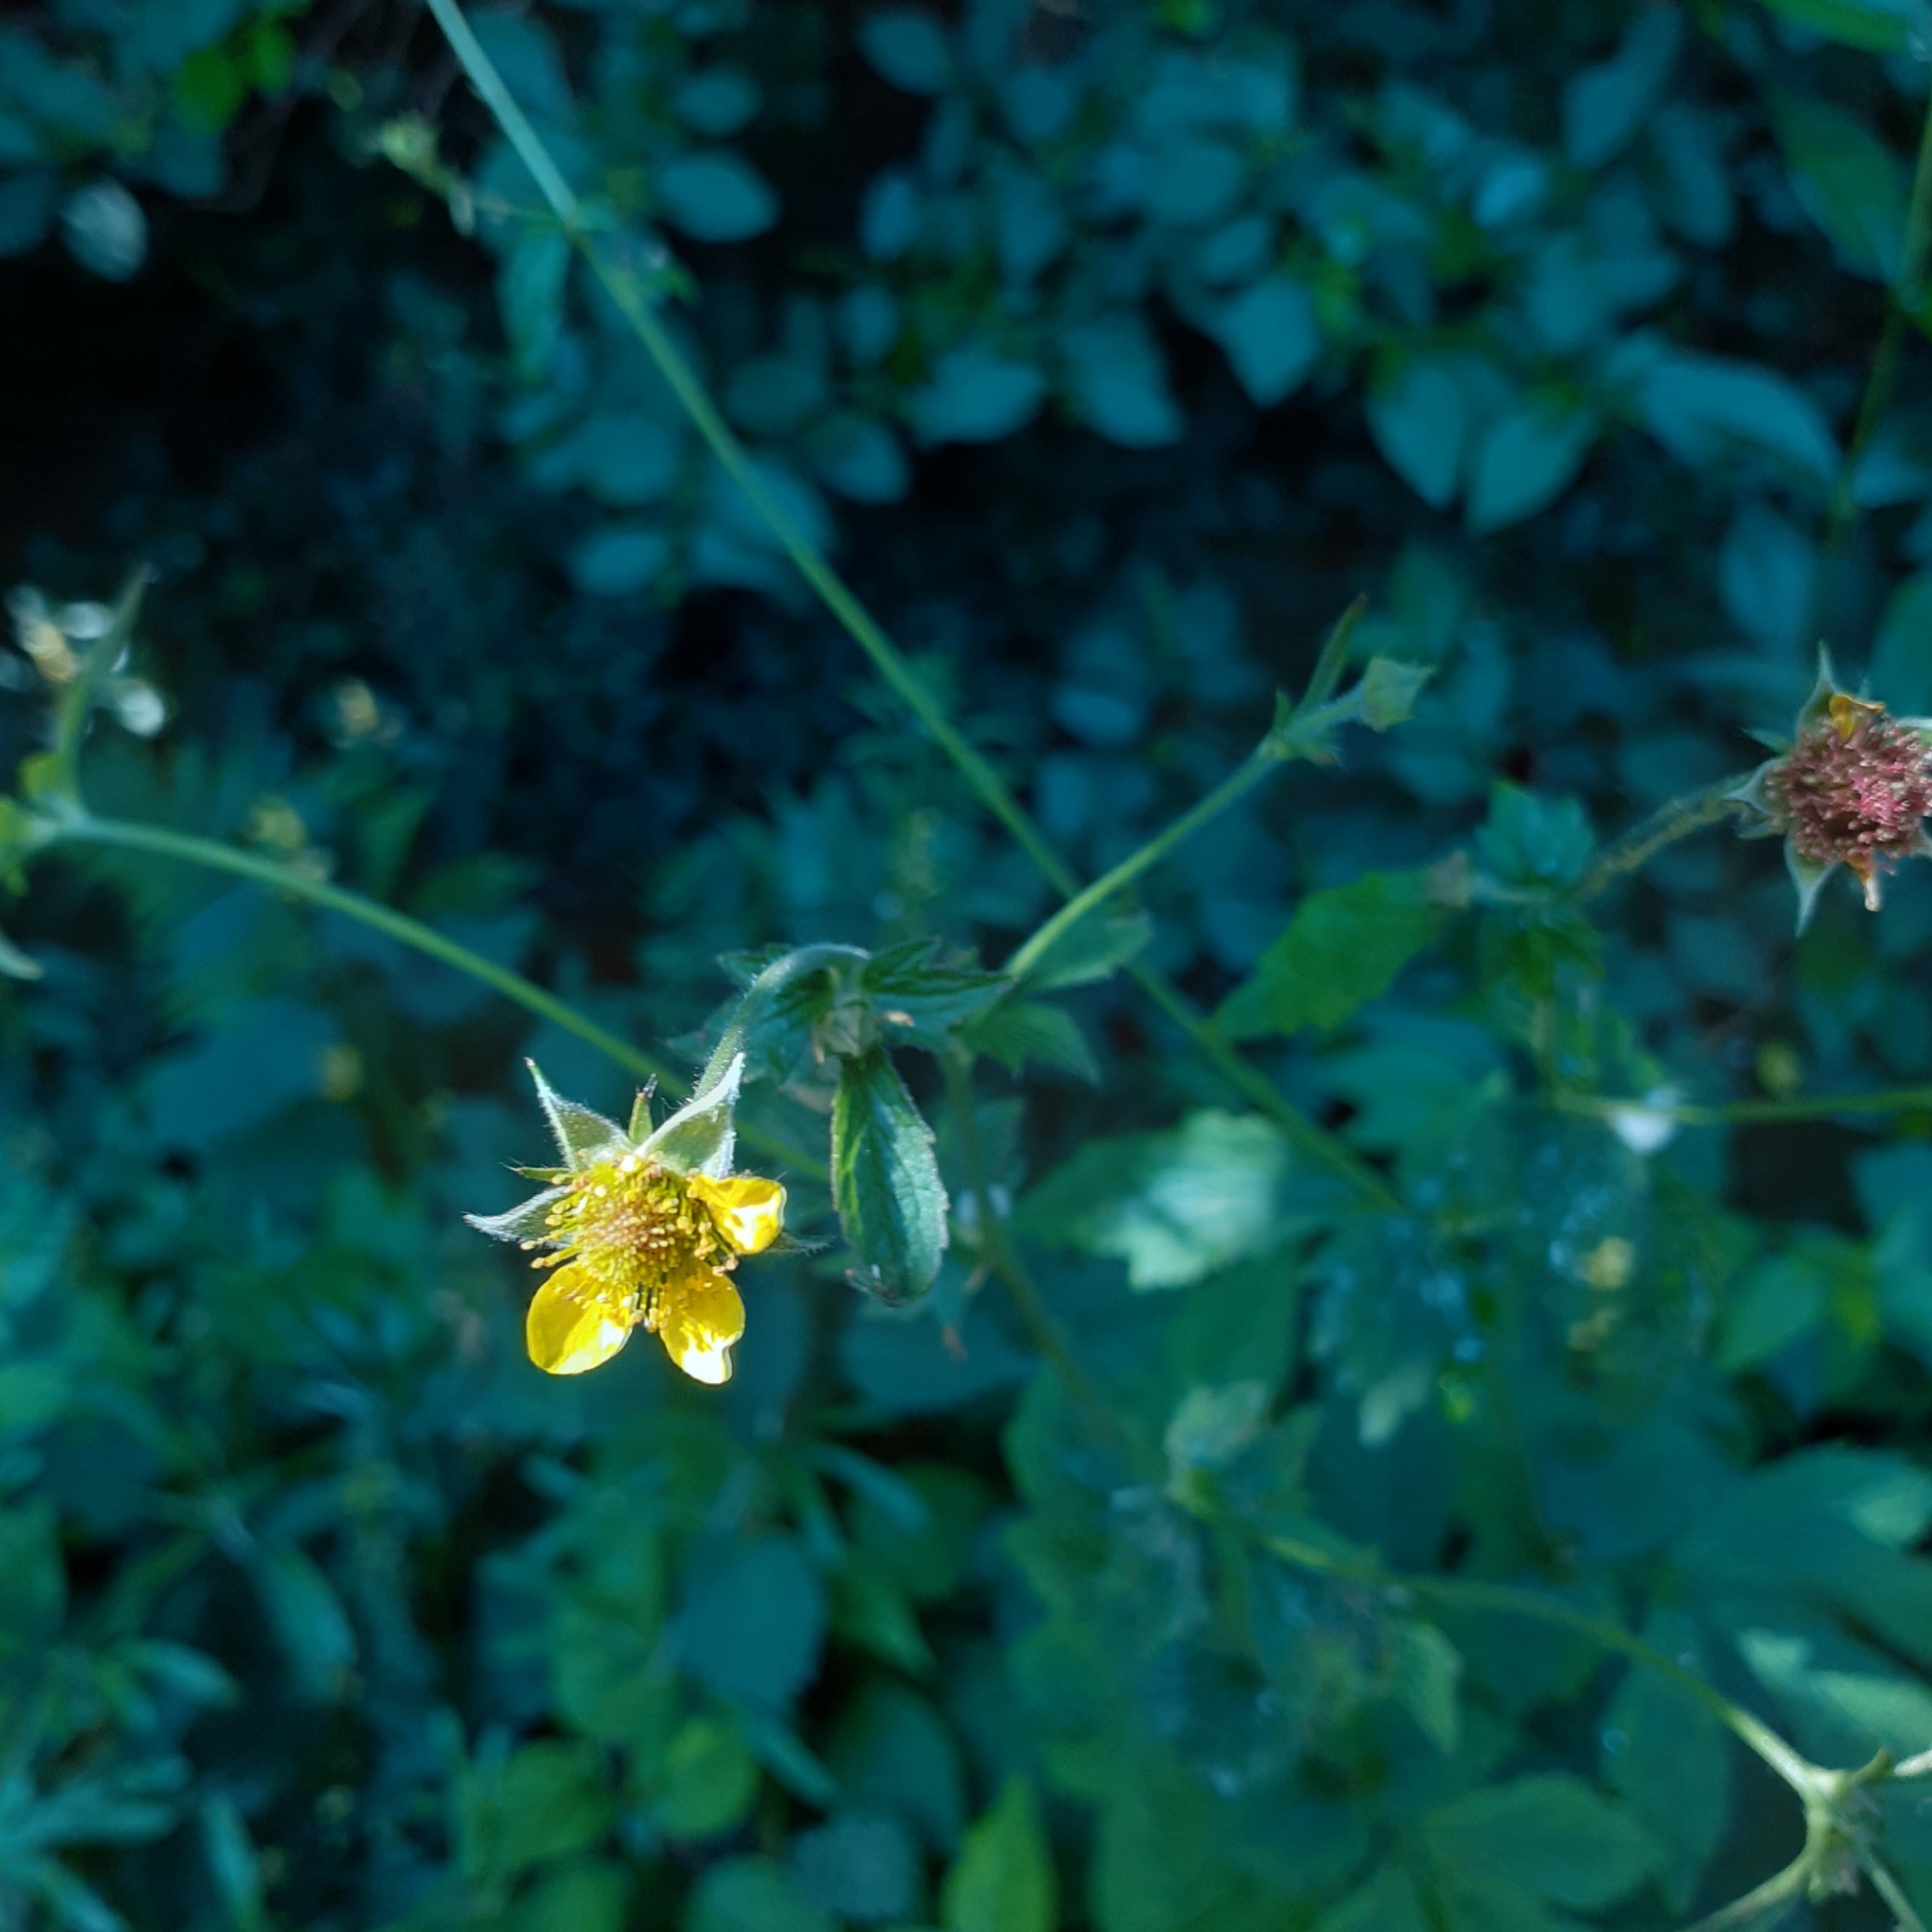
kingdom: Plantae
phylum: Tracheophyta
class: Magnoliopsida
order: Rosales
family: Rosaceae
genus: Geum
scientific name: Geum urbanum
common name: Wood avens
